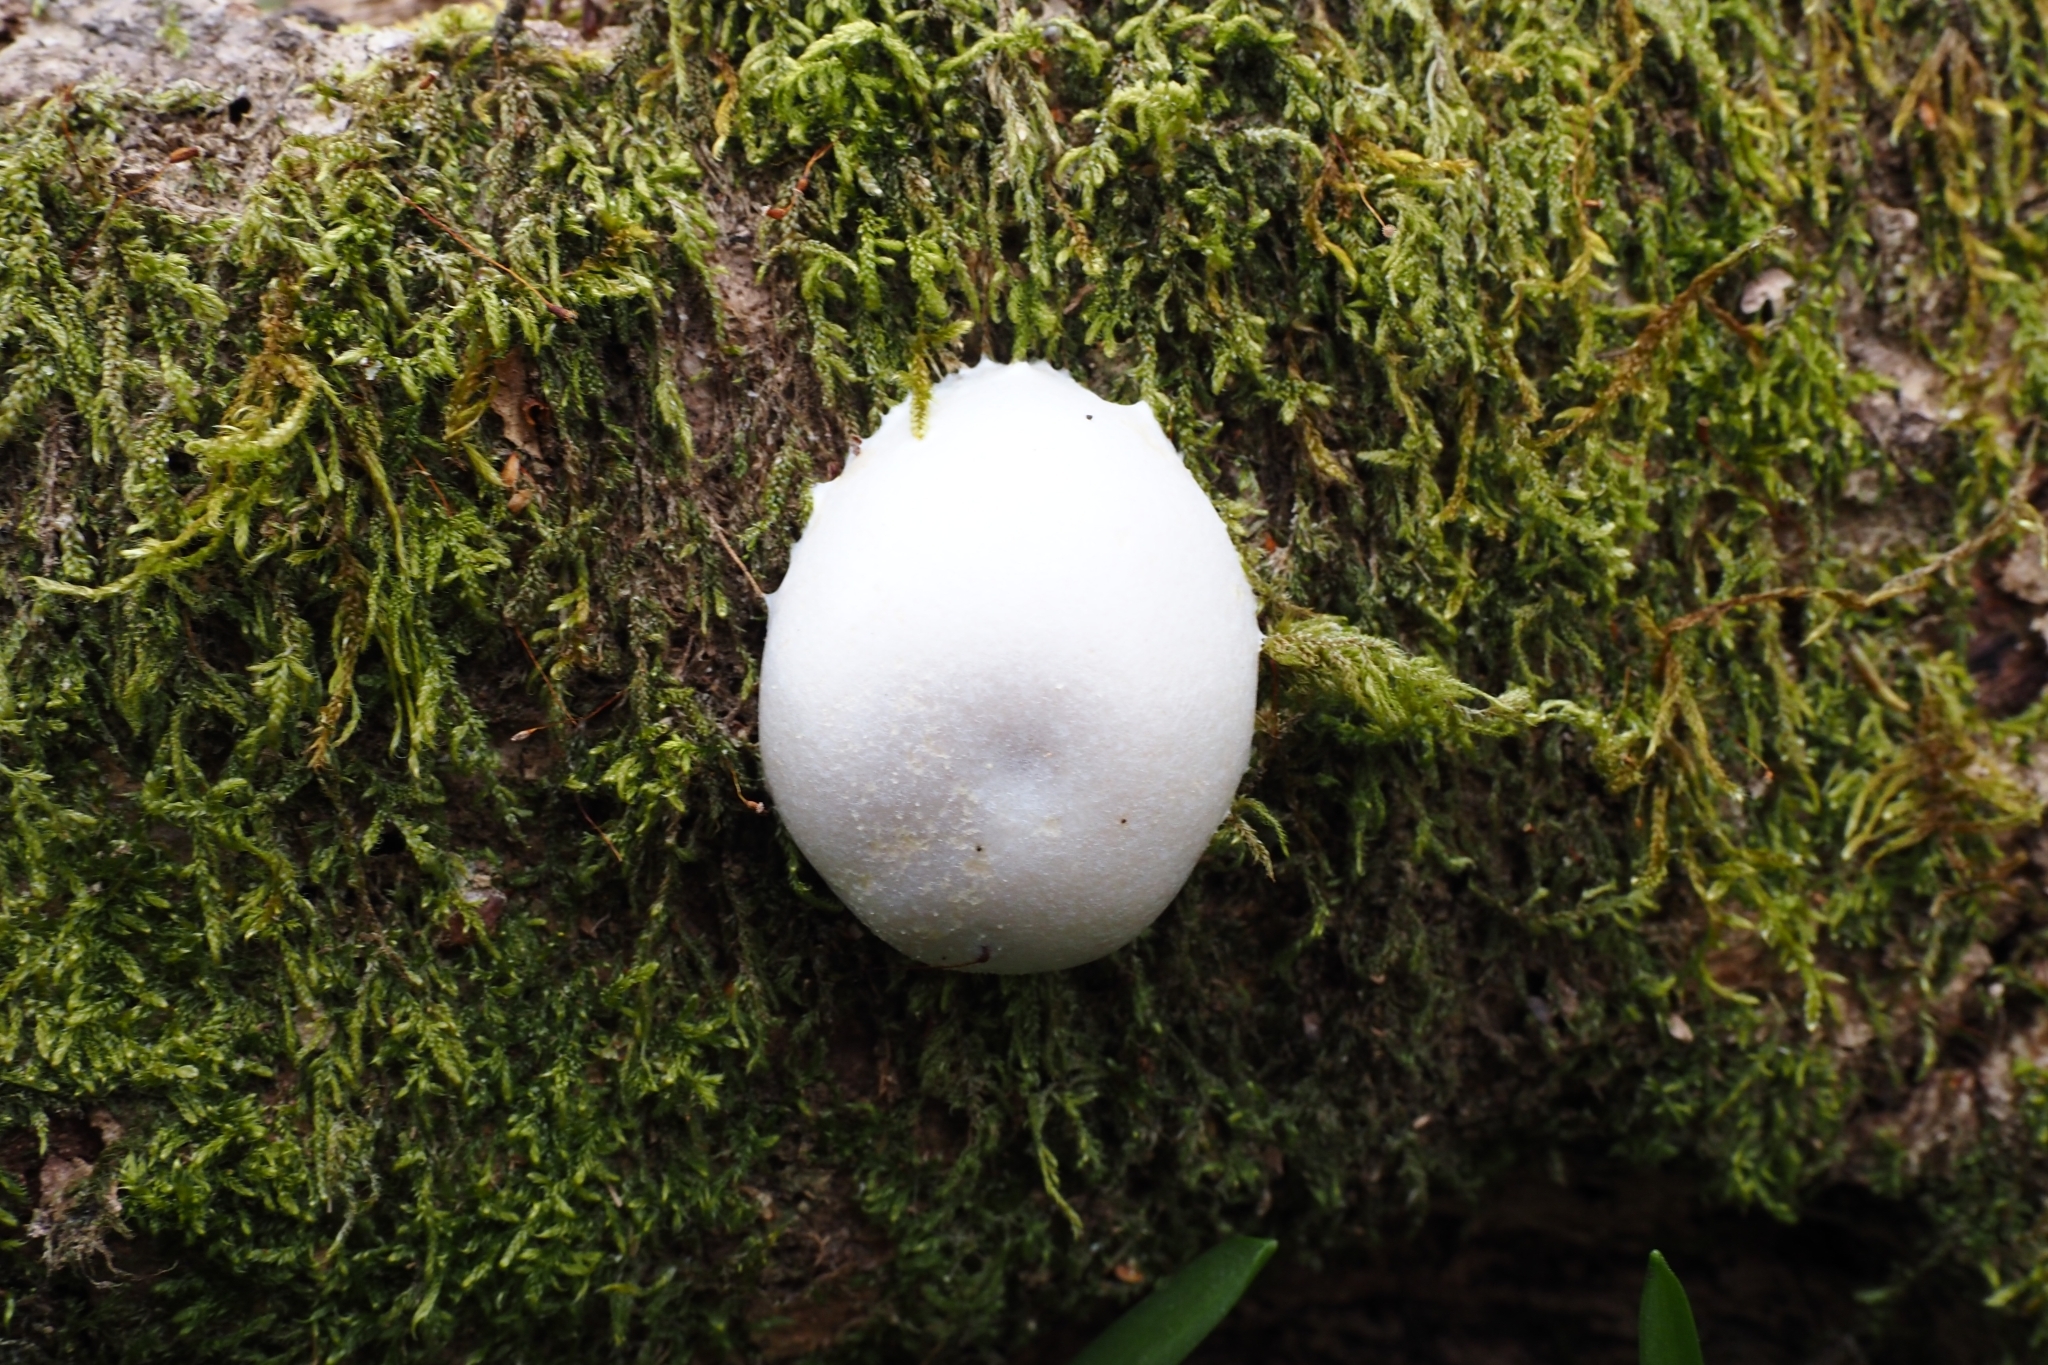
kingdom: Protozoa
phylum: Mycetozoa
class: Myxomycetes
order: Cribrariales
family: Tubiferaceae
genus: Reticularia
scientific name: Reticularia lycoperdon
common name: False puffball
